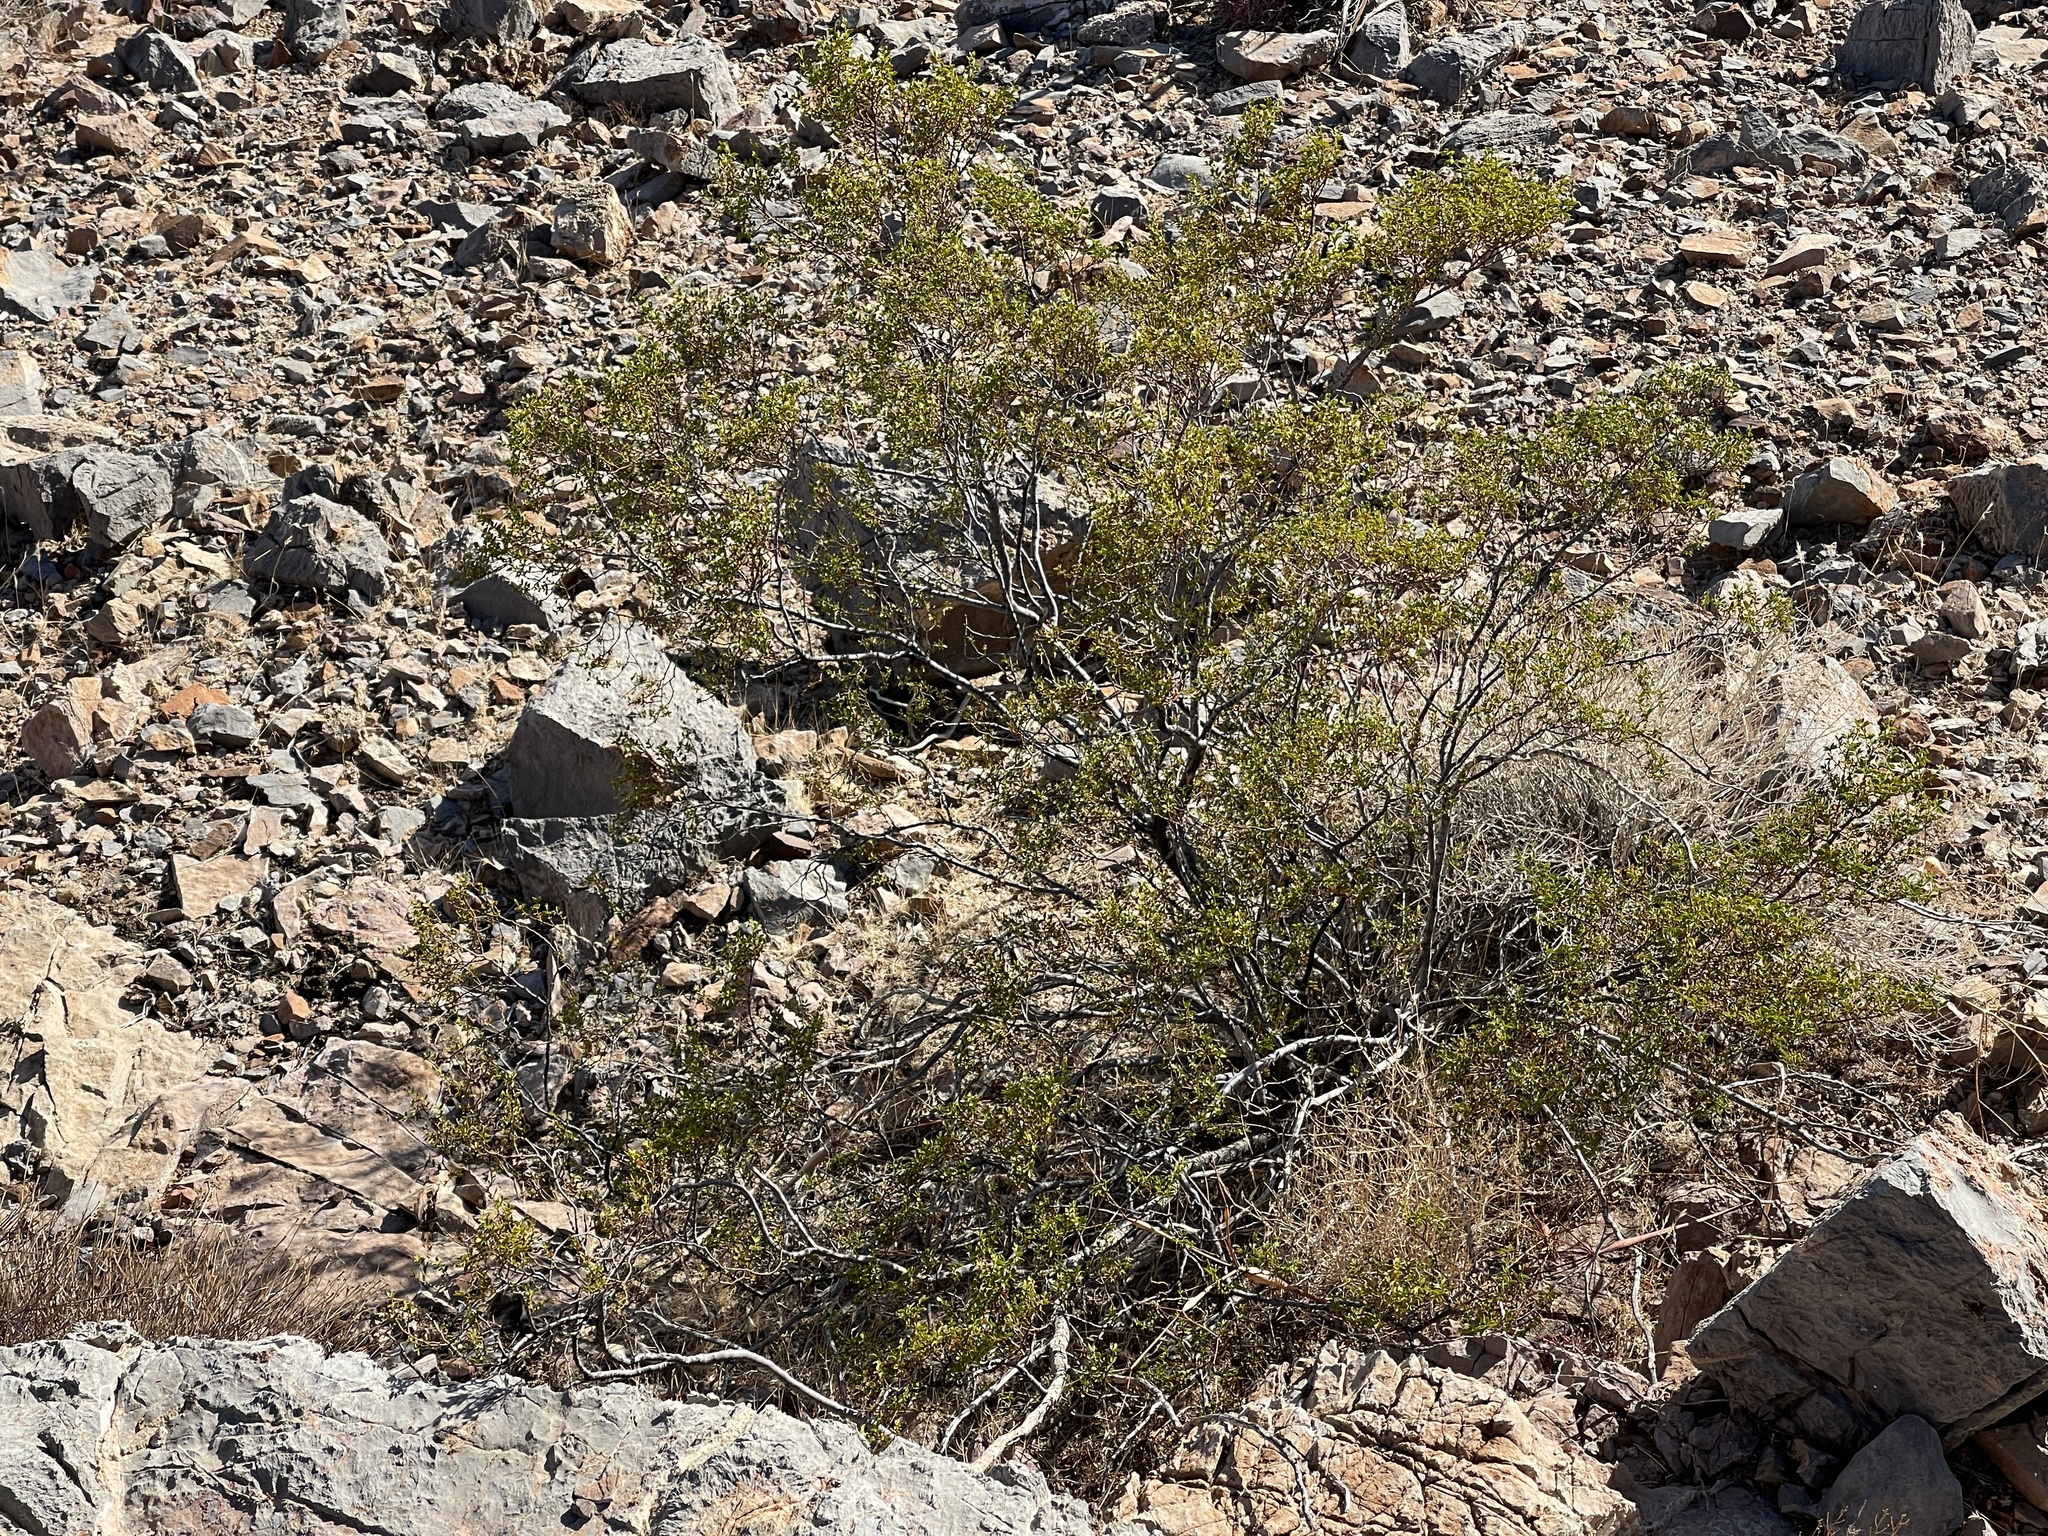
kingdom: Plantae
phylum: Tracheophyta
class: Magnoliopsida
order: Zygophyllales
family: Zygophyllaceae
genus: Larrea
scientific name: Larrea tridentata
